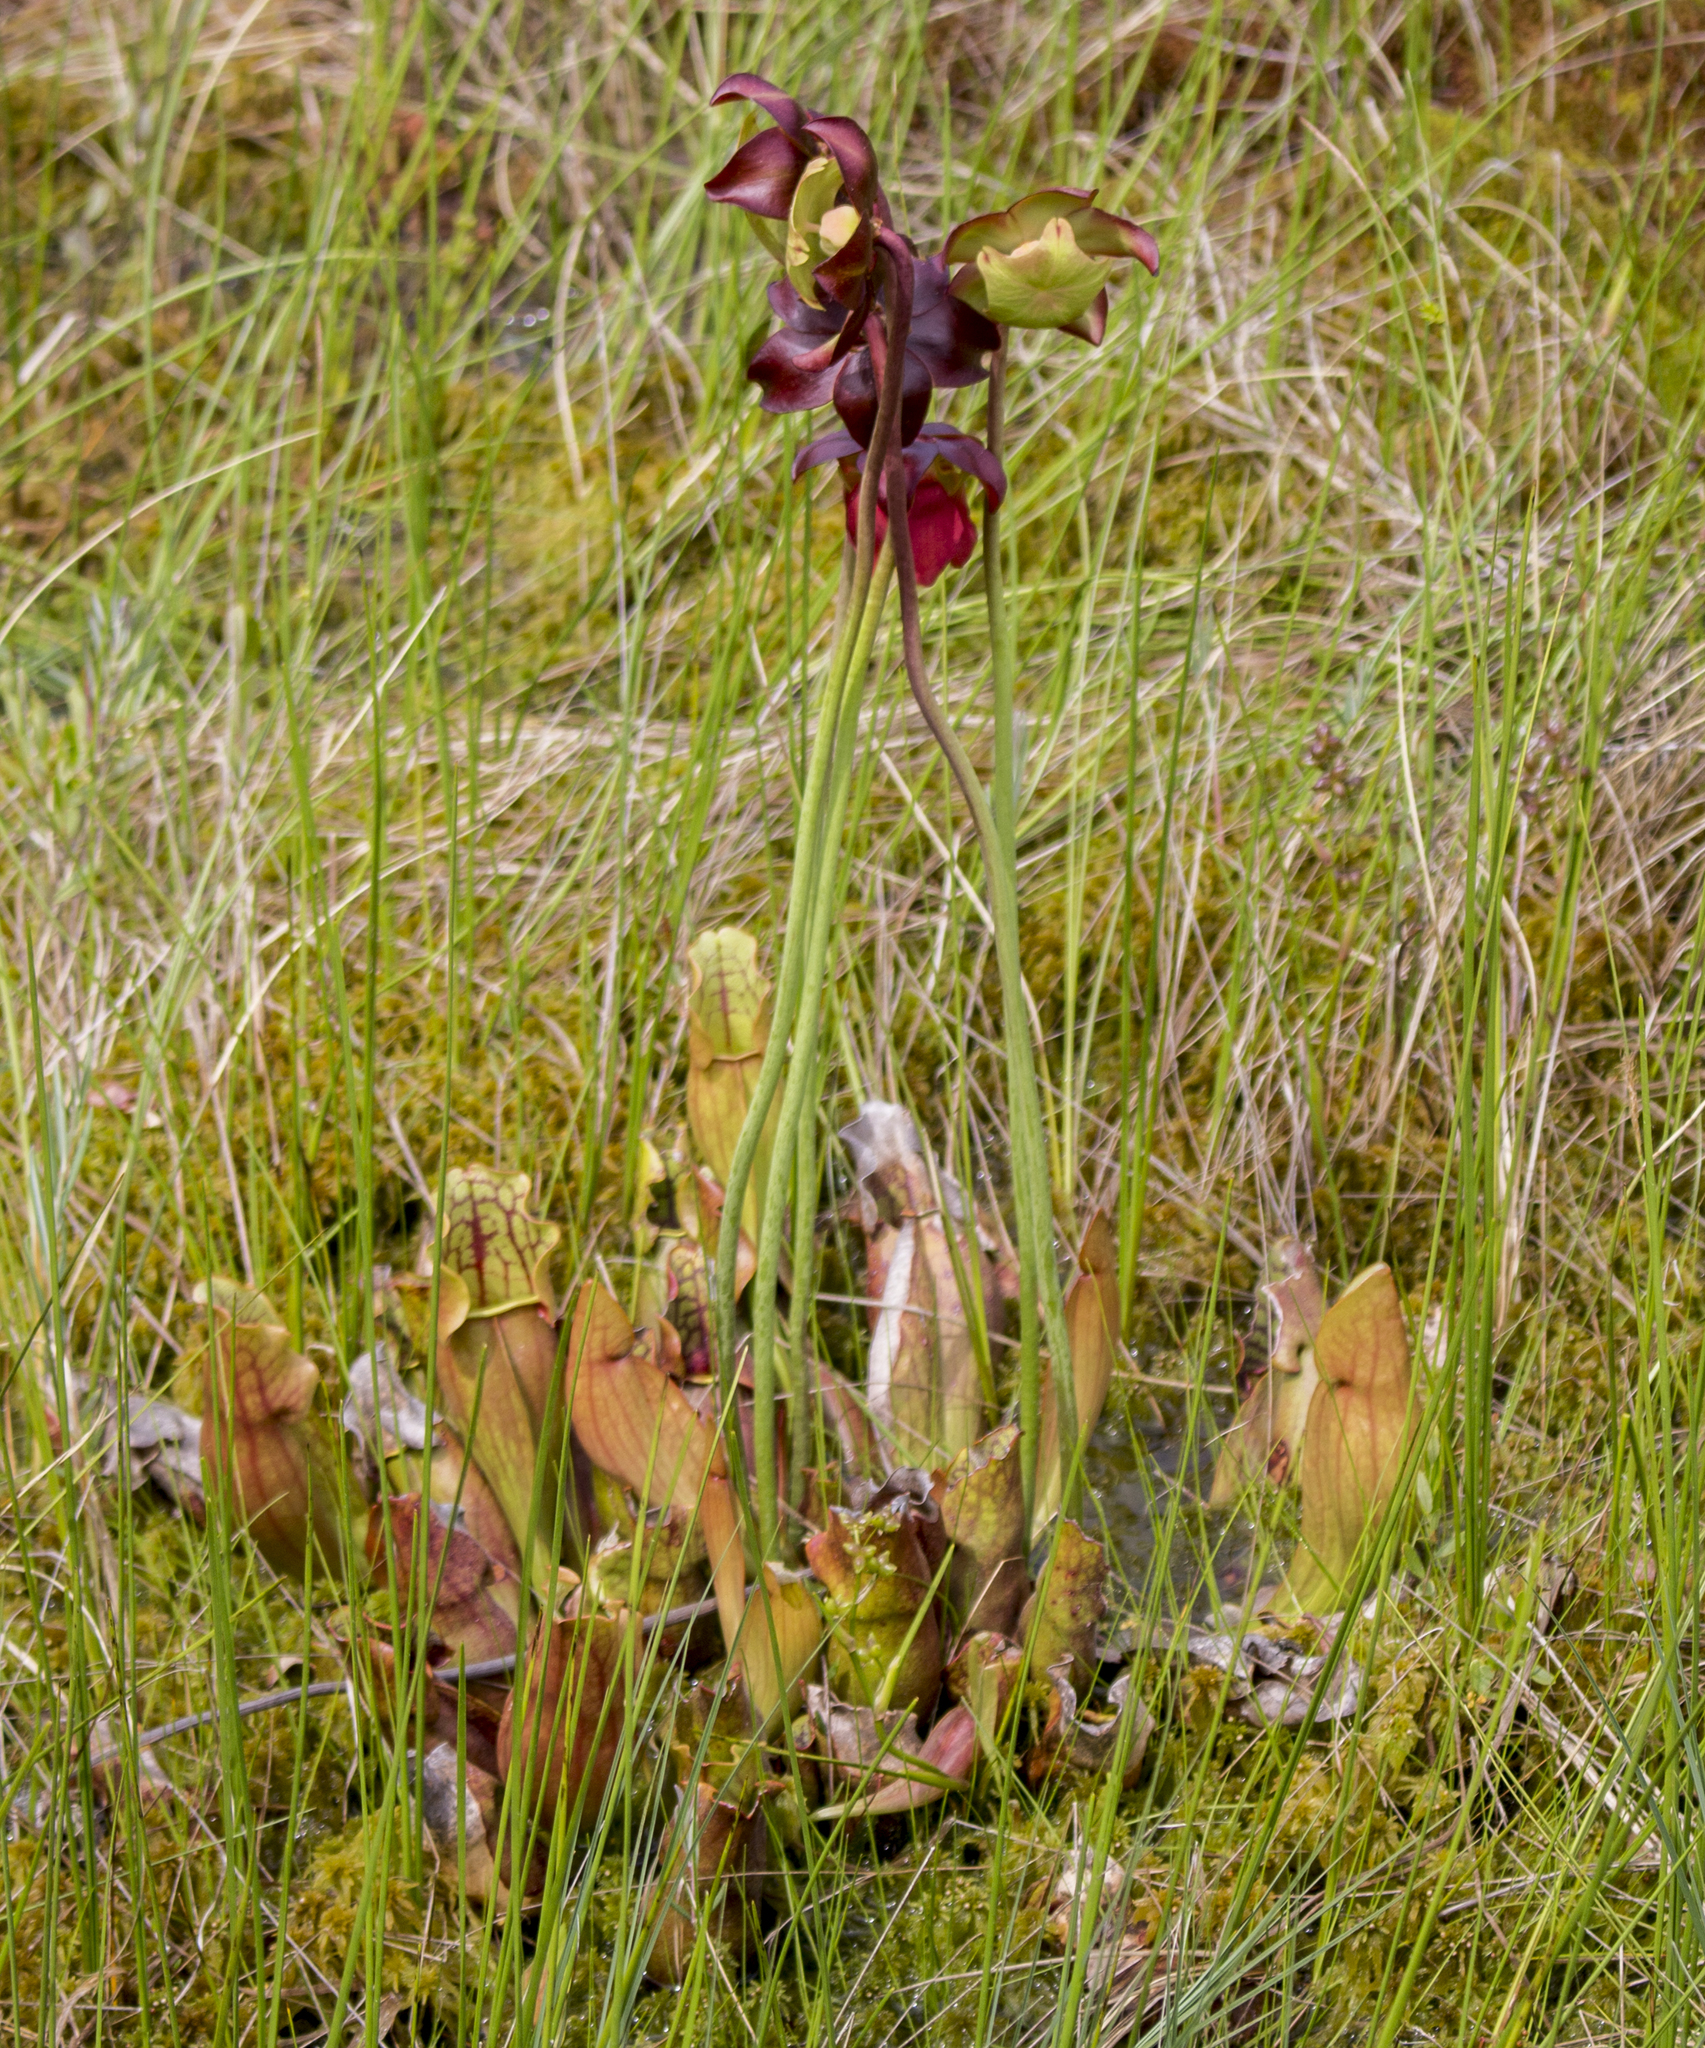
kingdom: Plantae
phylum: Tracheophyta
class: Magnoliopsida
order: Ericales
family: Sarraceniaceae
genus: Sarracenia
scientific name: Sarracenia purpurea
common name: Pitcherplant
